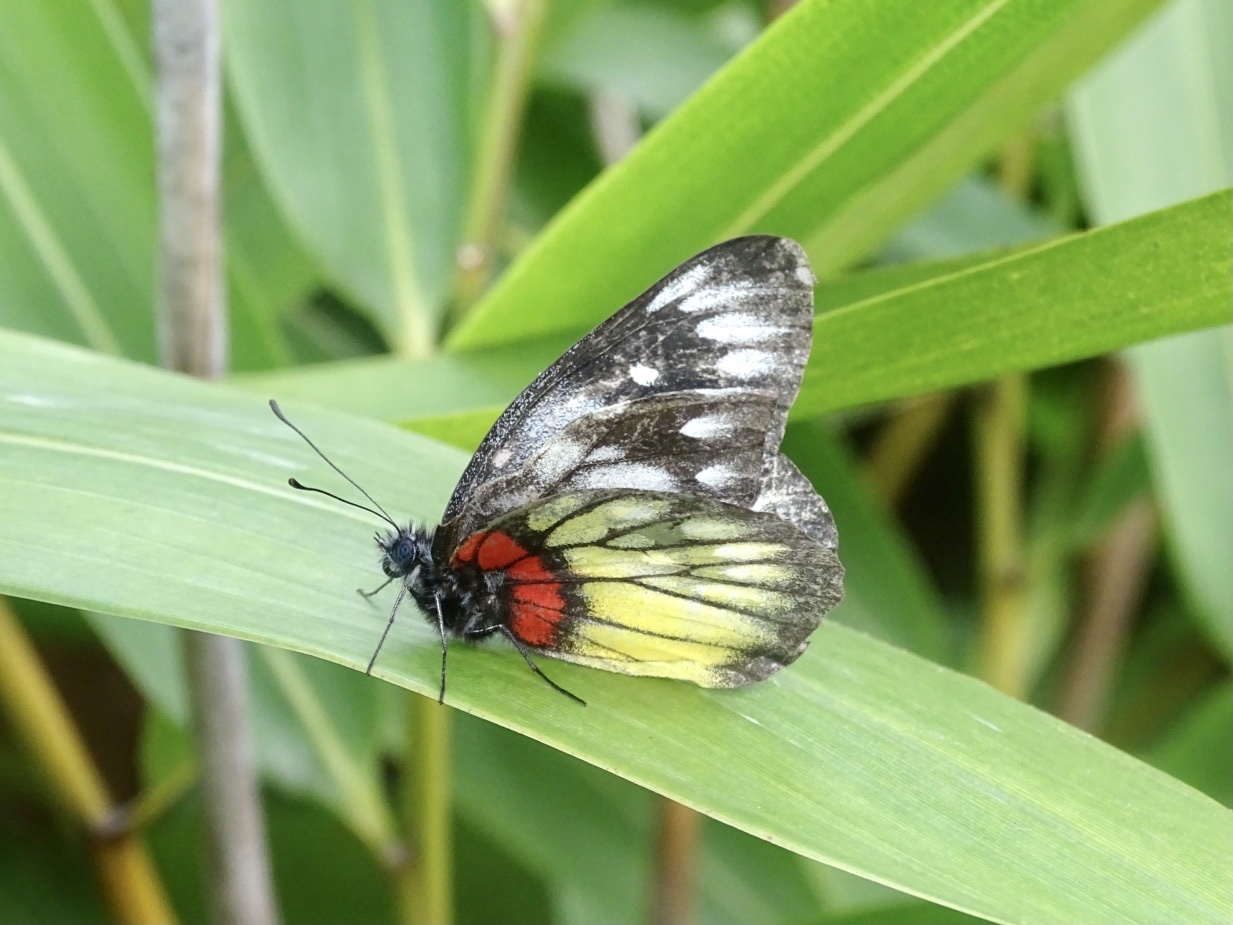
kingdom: Animalia
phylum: Arthropoda
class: Insecta
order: Lepidoptera
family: Pieridae
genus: Delias
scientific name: Delias pasithoe
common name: Red-base jezebel
